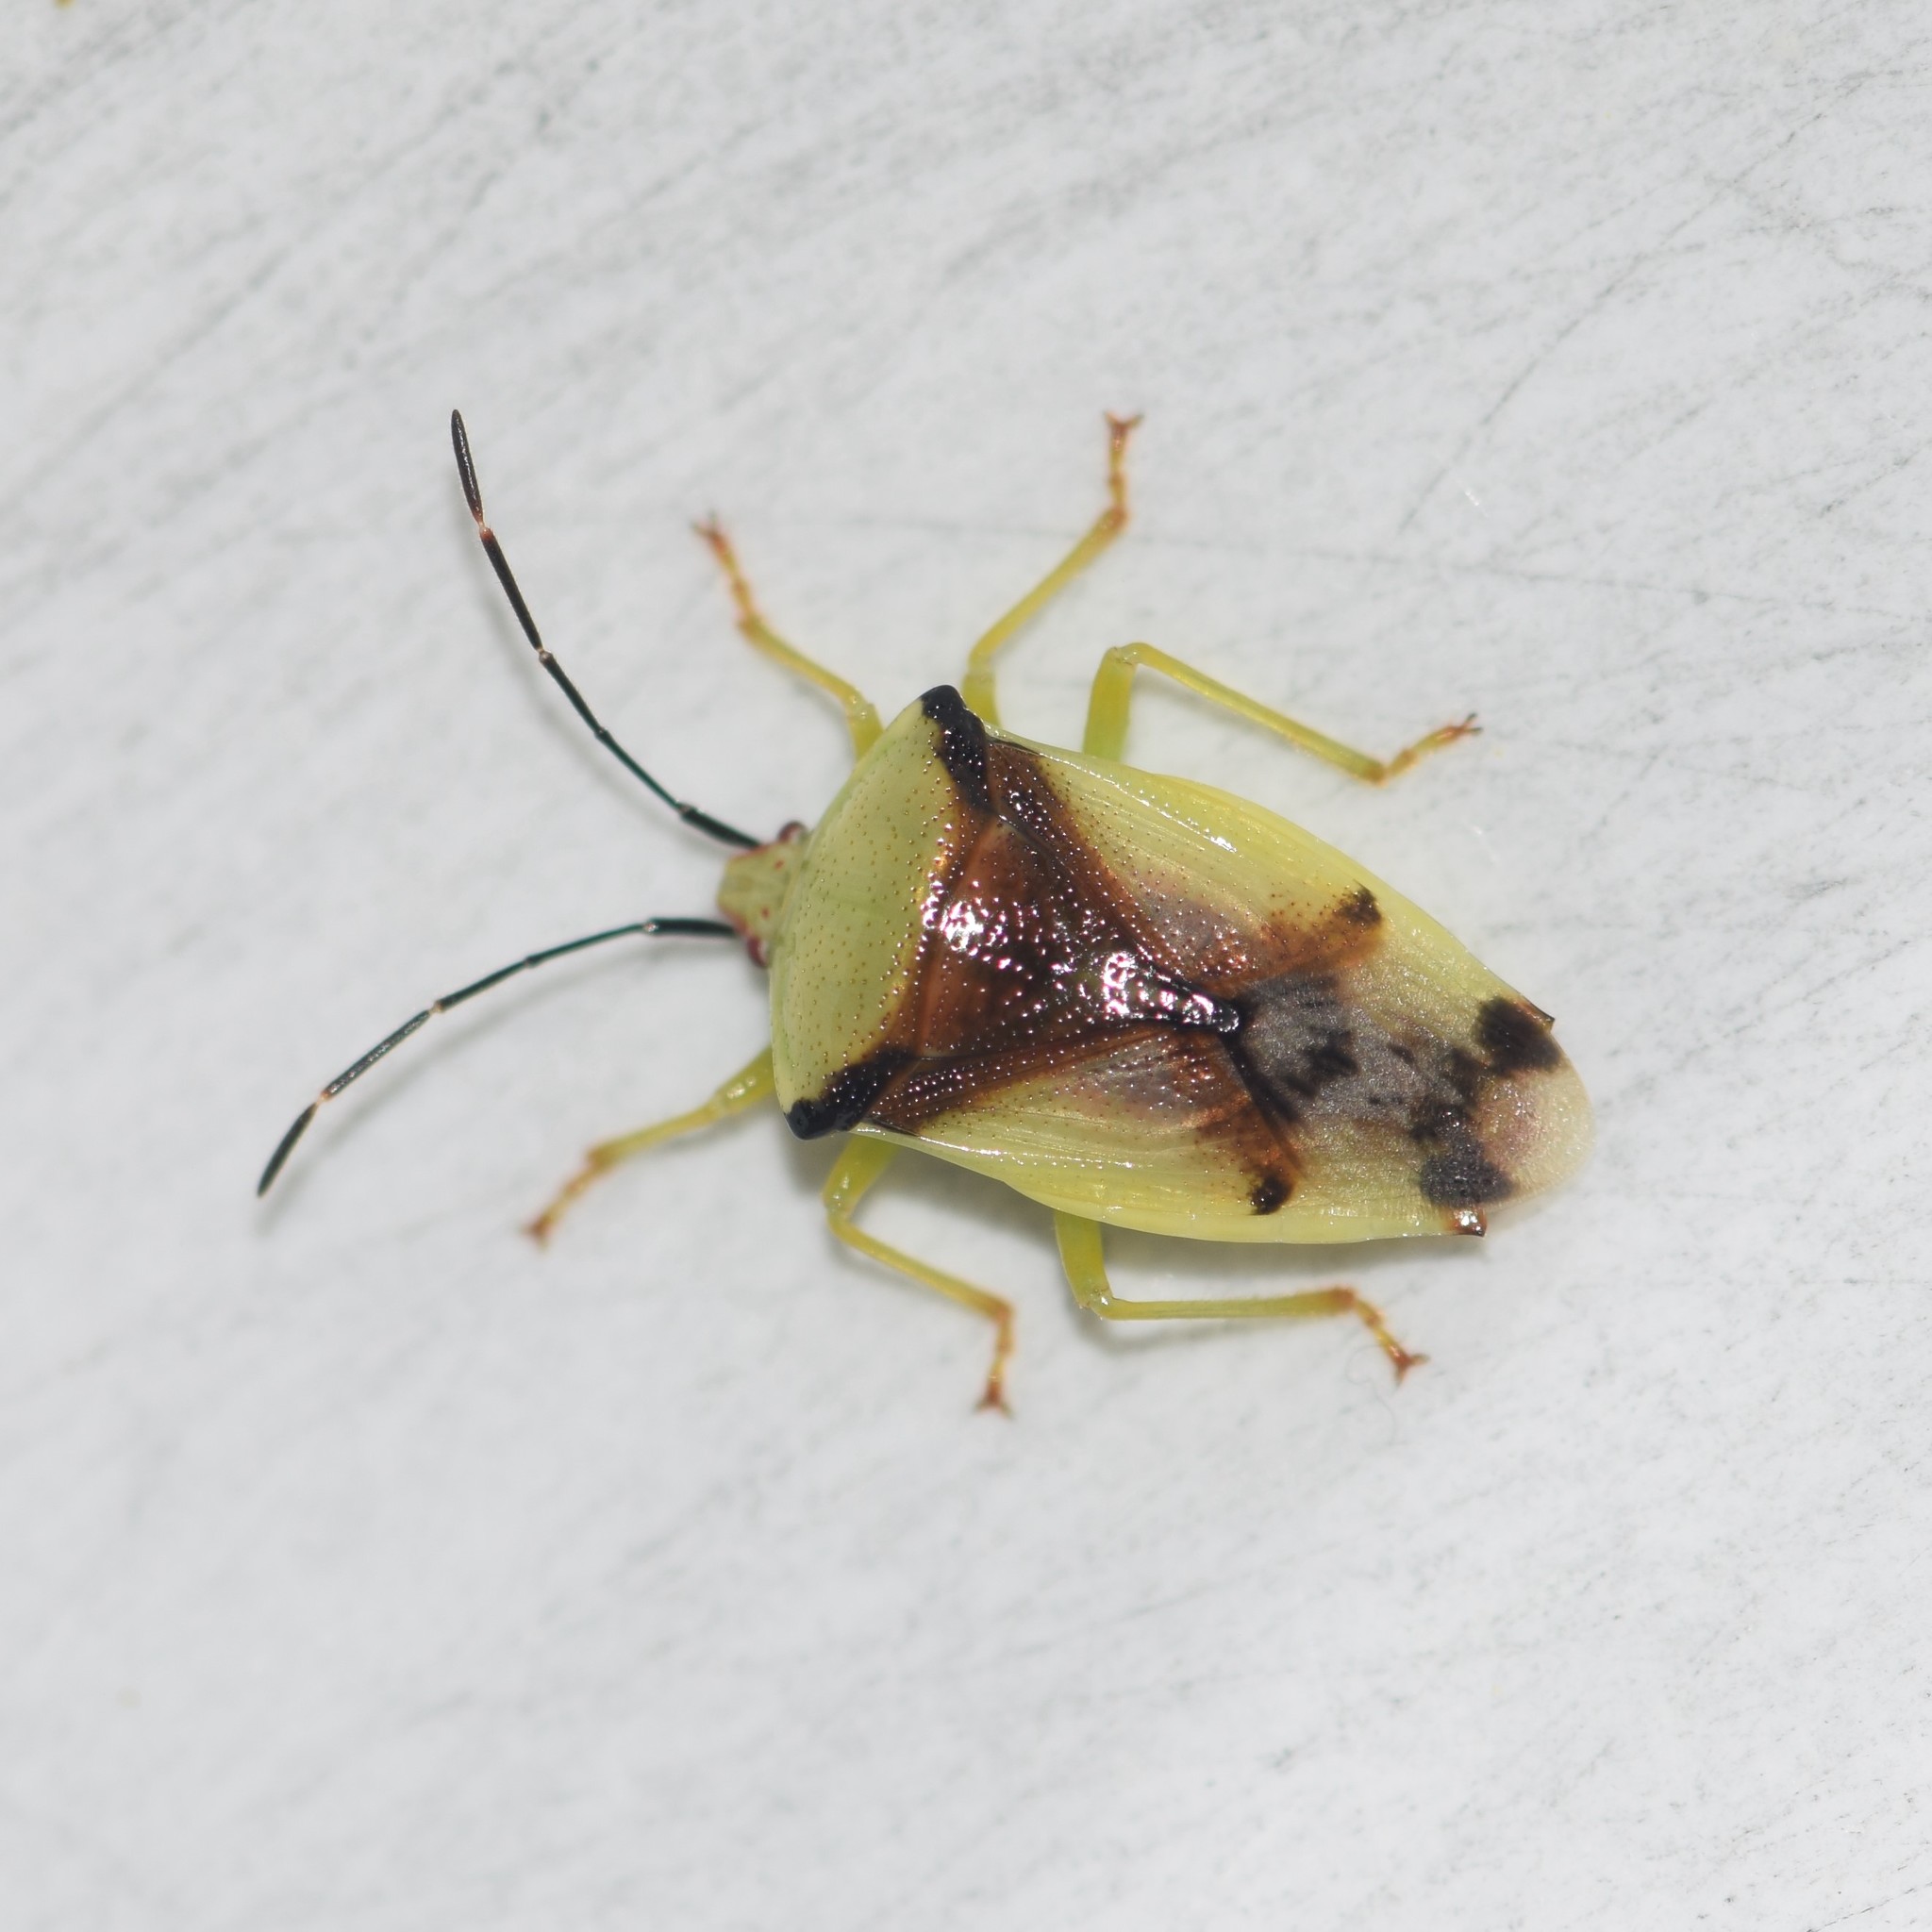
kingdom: Animalia
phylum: Arthropoda
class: Insecta
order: Hemiptera
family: Acanthosomatidae
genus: Elasmostethus
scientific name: Elasmostethus atricornis
